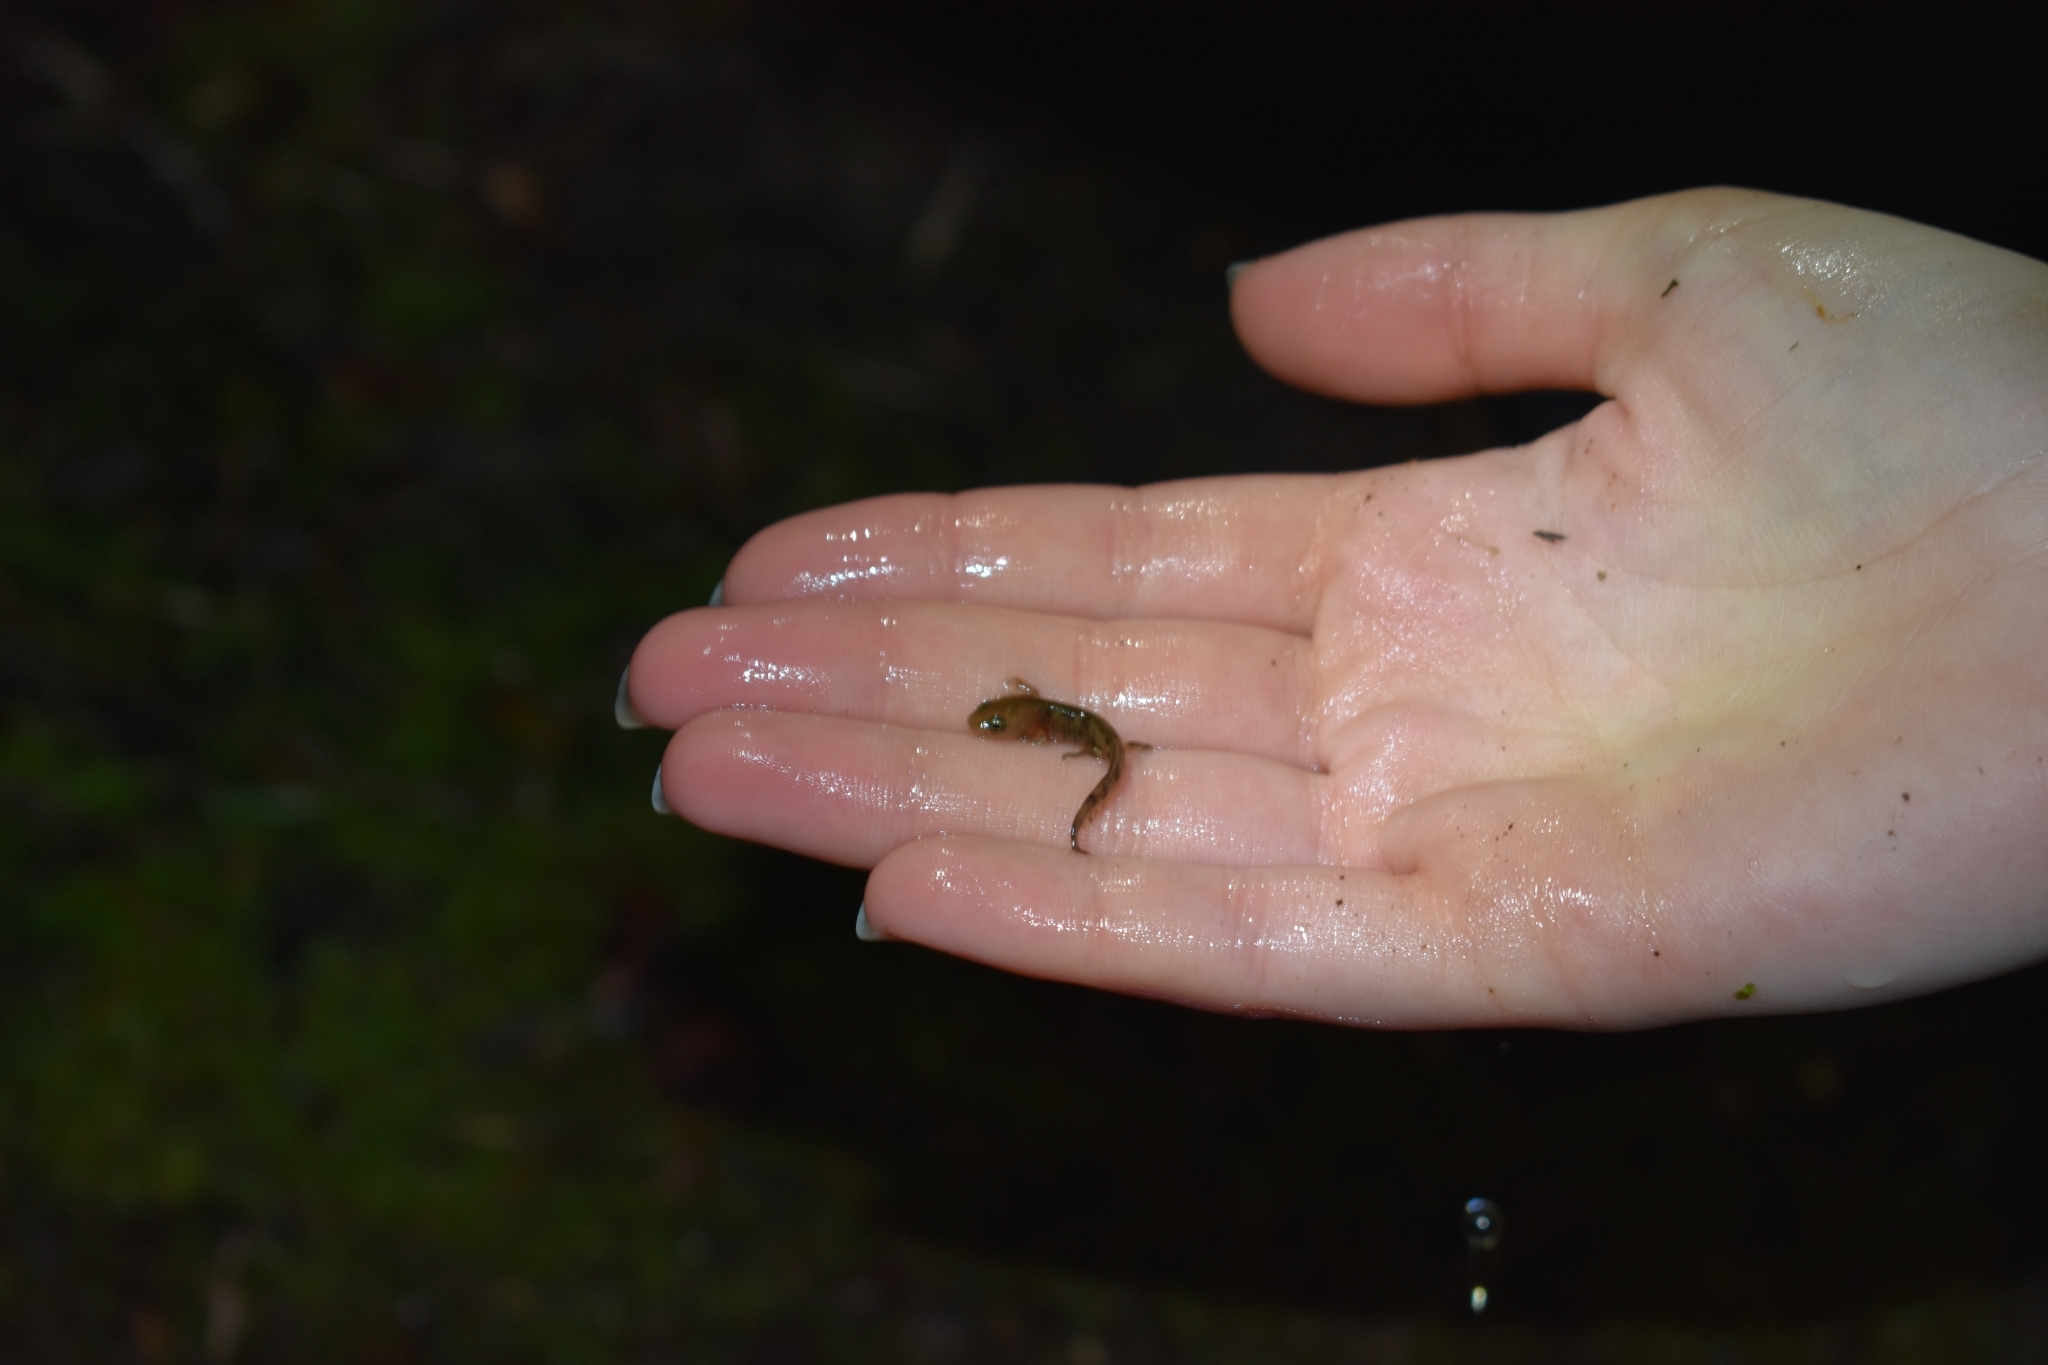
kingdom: Animalia
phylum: Chordata
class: Amphibia
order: Caudata
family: Salamandridae
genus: Salamandra
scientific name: Salamandra salamandra
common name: Fire salamander
